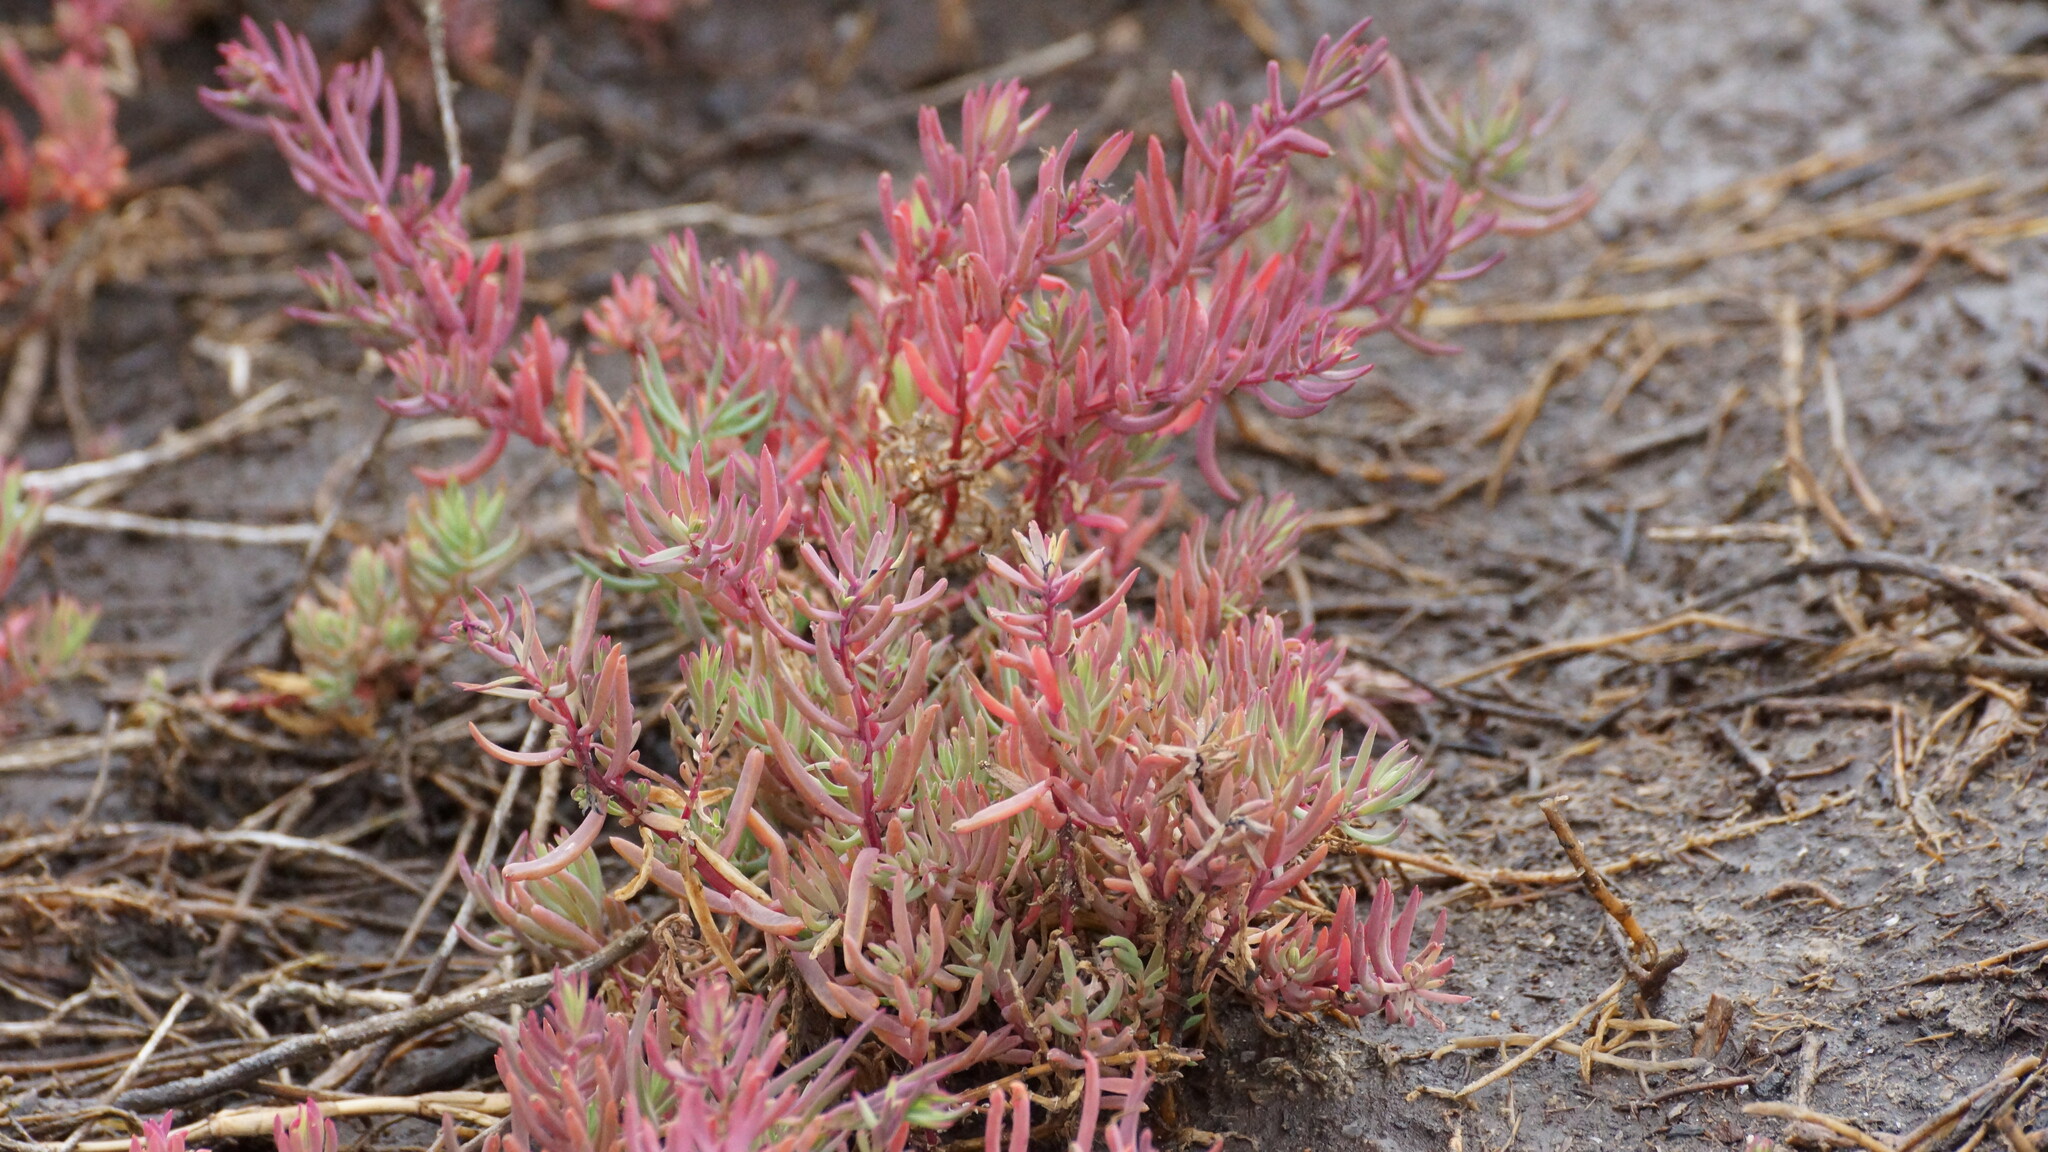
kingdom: Plantae
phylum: Tracheophyta
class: Magnoliopsida
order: Caryophyllales
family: Amaranthaceae
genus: Suaeda
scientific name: Suaeda australis
